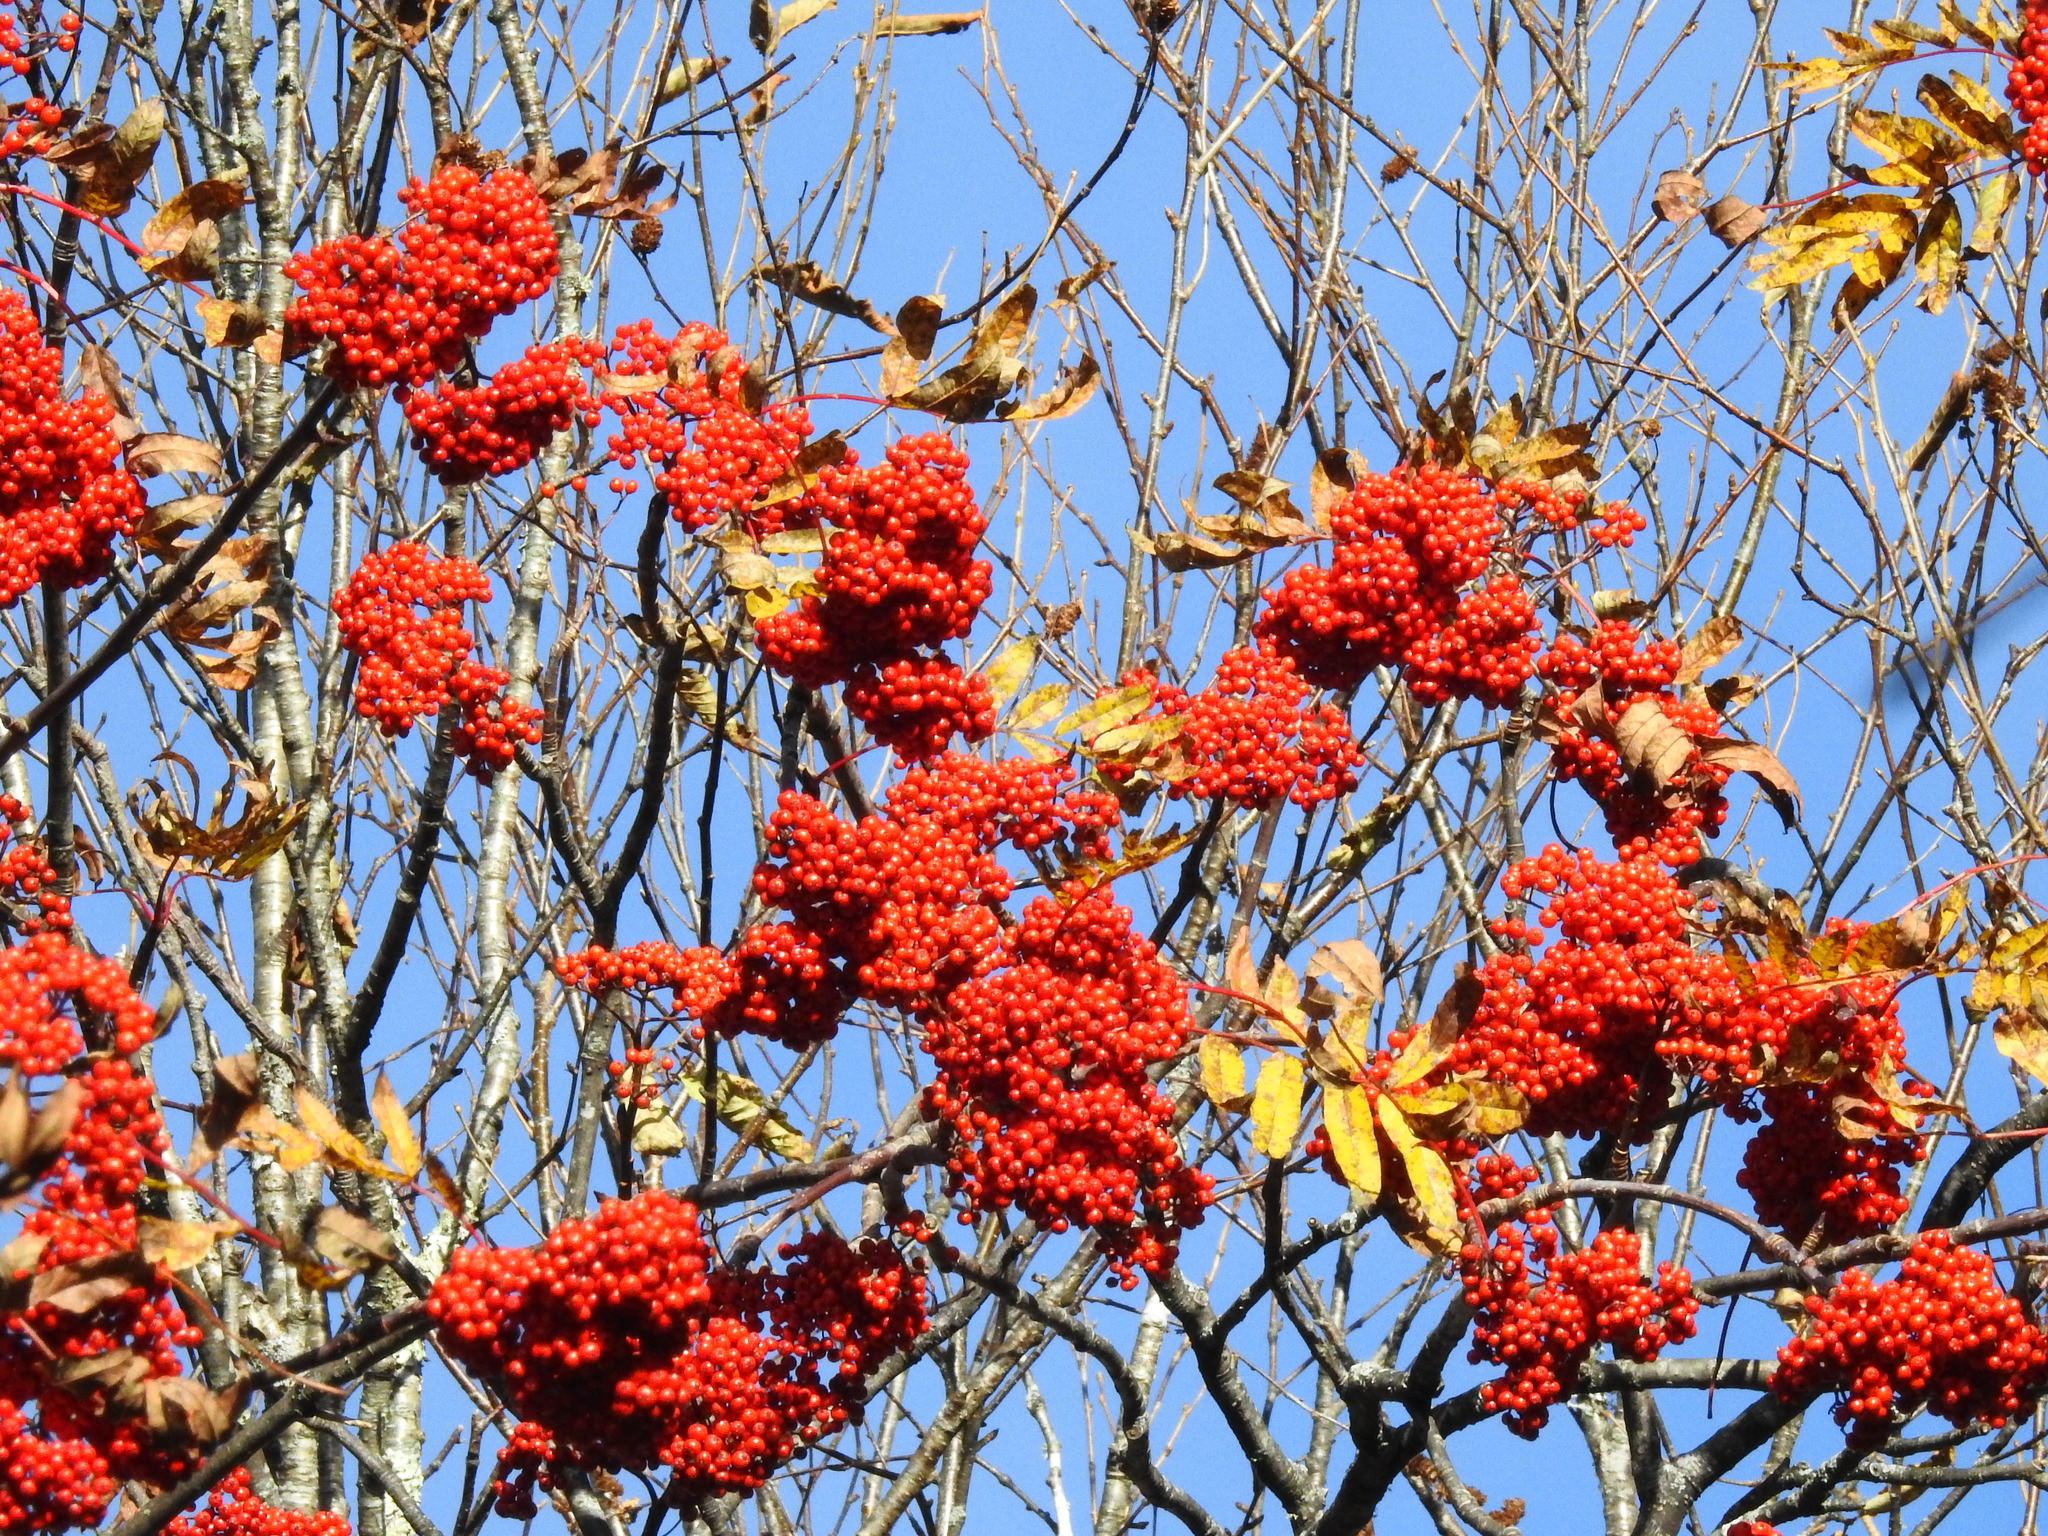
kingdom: Plantae
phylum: Tracheophyta
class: Magnoliopsida
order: Rosales
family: Rosaceae
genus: Sorbus
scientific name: Sorbus americana
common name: American mountain-ash
